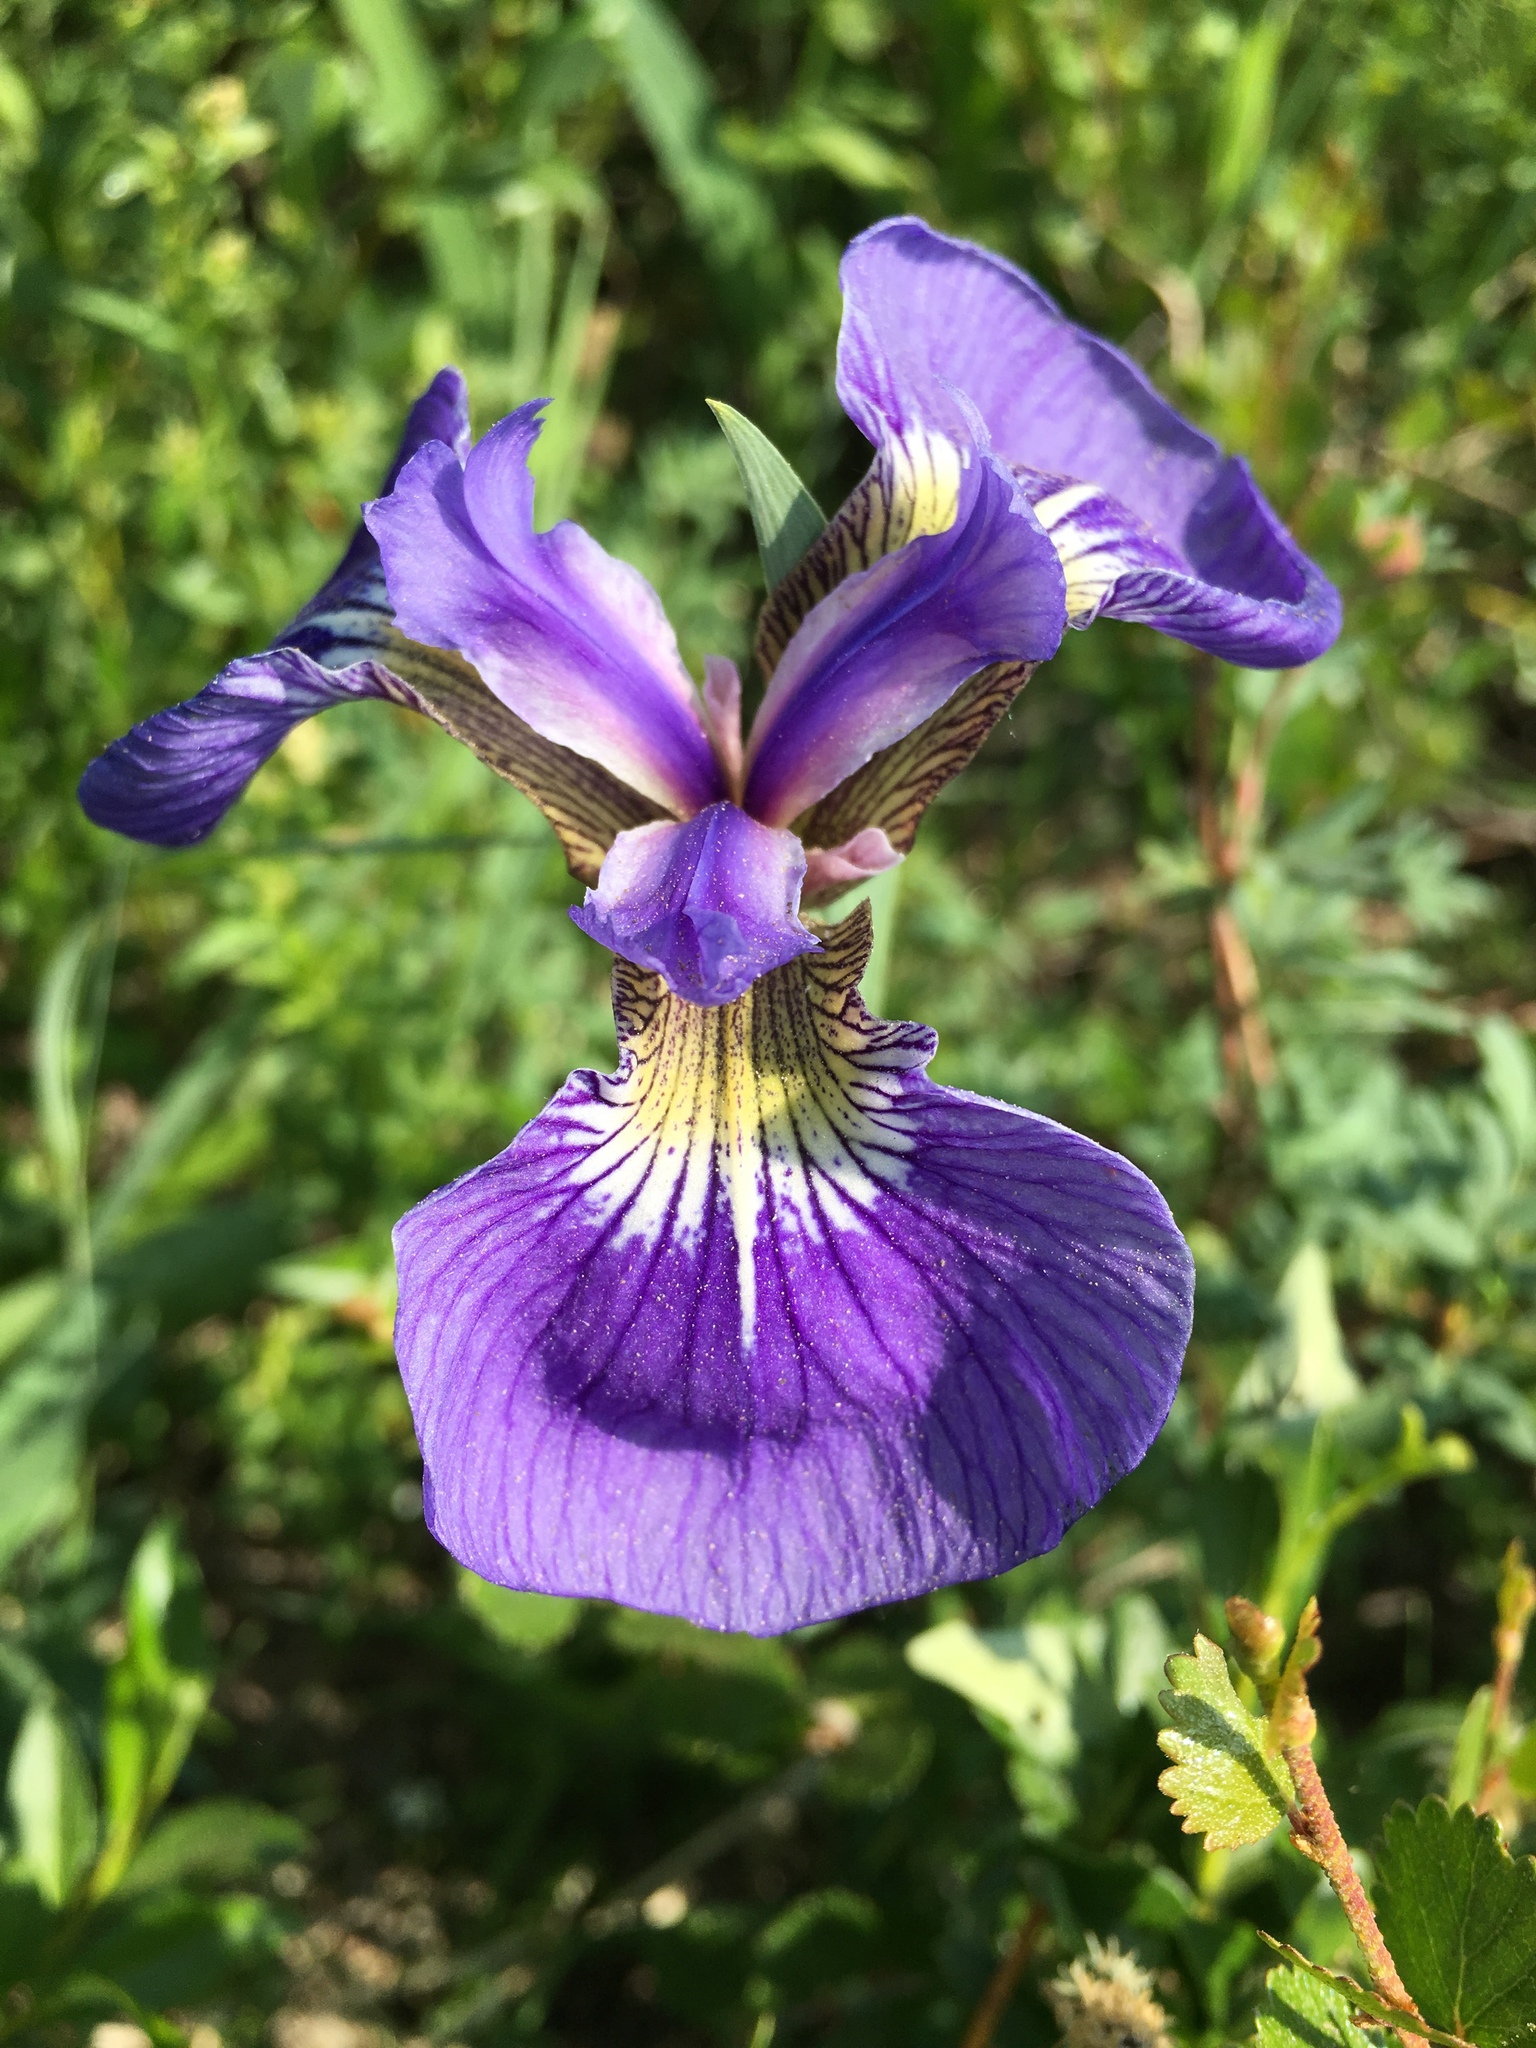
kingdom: Plantae
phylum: Tracheophyta
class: Liliopsida
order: Asparagales
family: Iridaceae
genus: Iris
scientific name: Iris setosa
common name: Arctic blue flag
